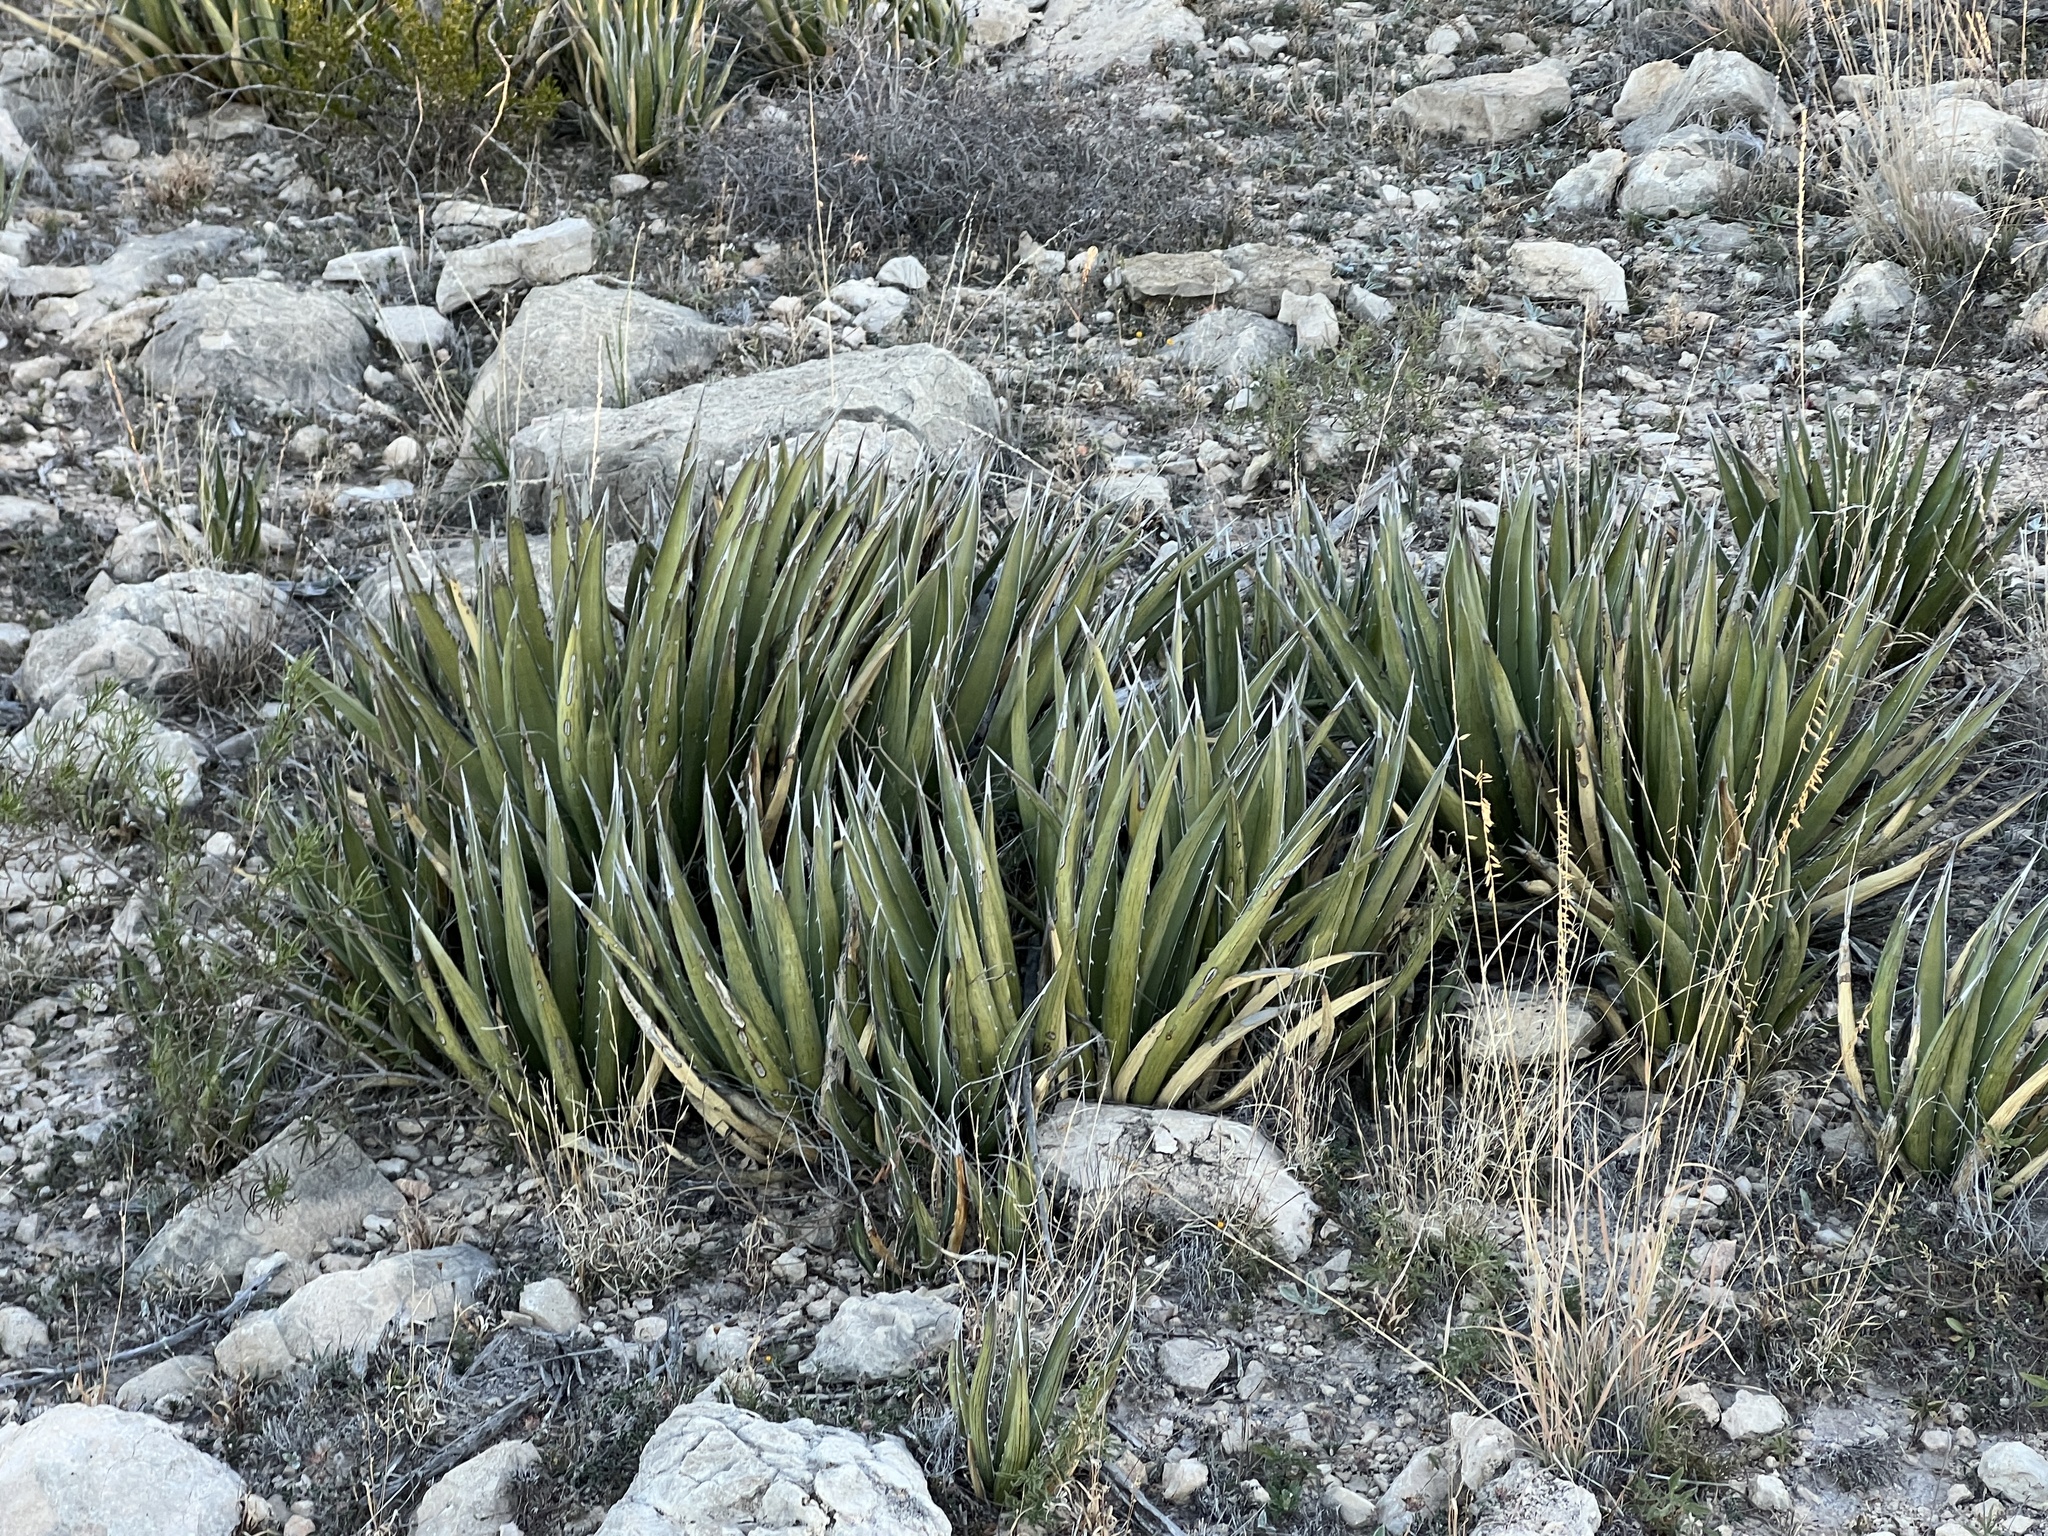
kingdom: Plantae
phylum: Tracheophyta
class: Liliopsida
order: Asparagales
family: Asparagaceae
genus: Agave
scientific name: Agave lechuguilla
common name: Lecheguilla agave
